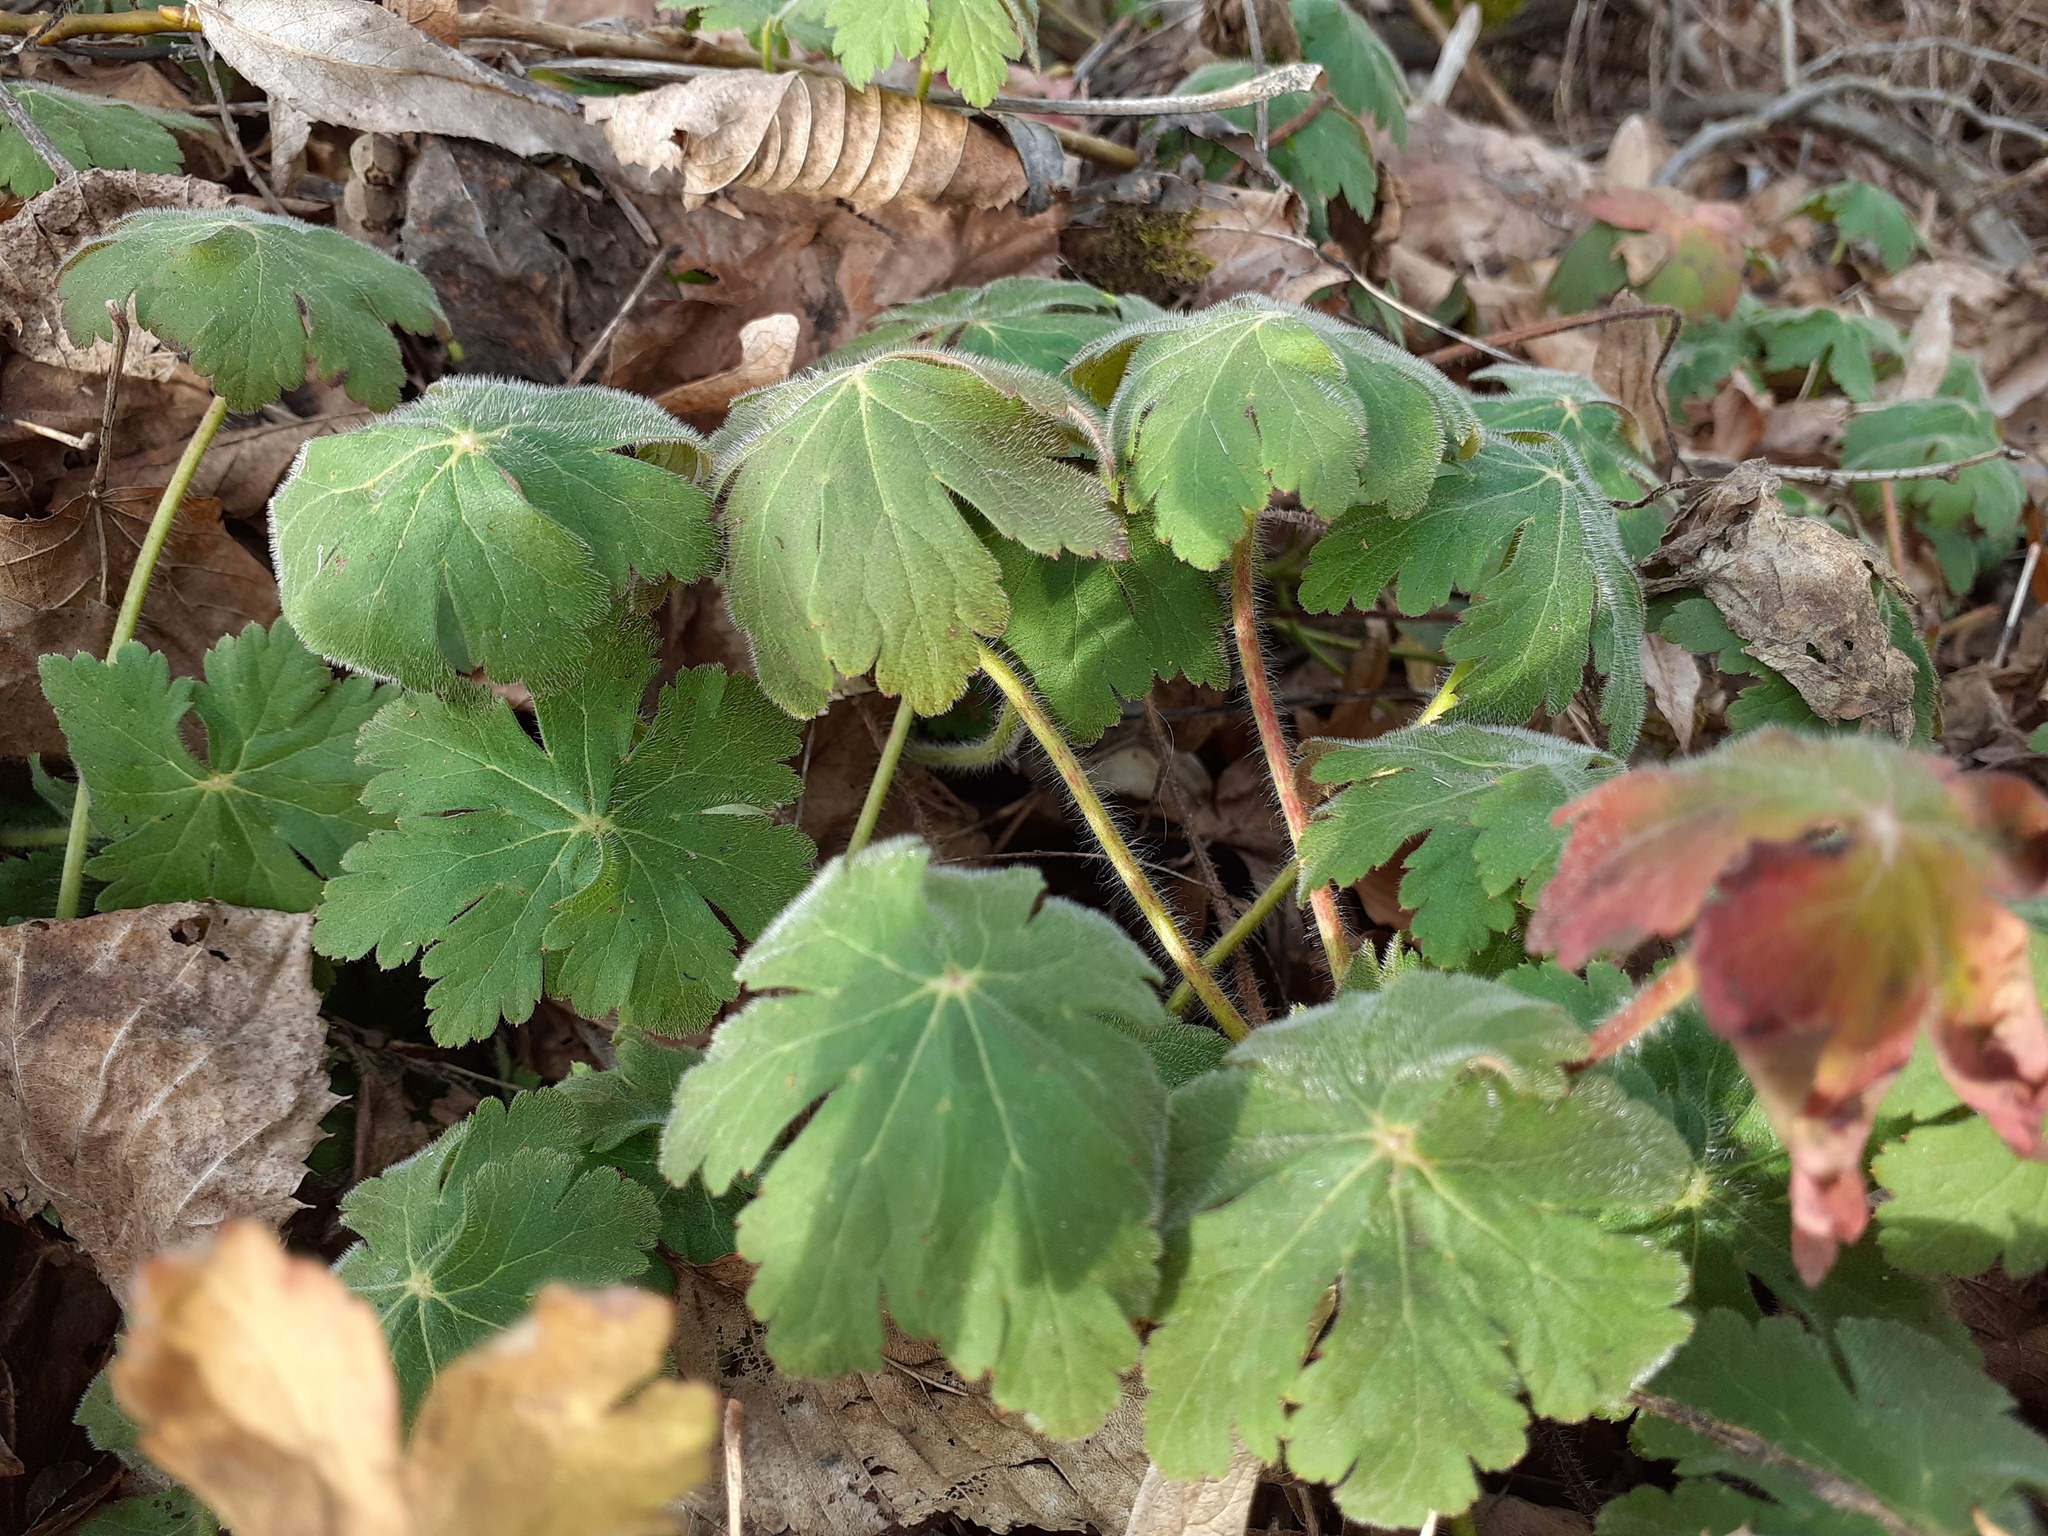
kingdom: Plantae
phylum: Tracheophyta
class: Magnoliopsida
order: Geraniales
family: Geraniaceae
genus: Geranium
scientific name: Geranium macrorrhizum
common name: Rock crane's-bill
